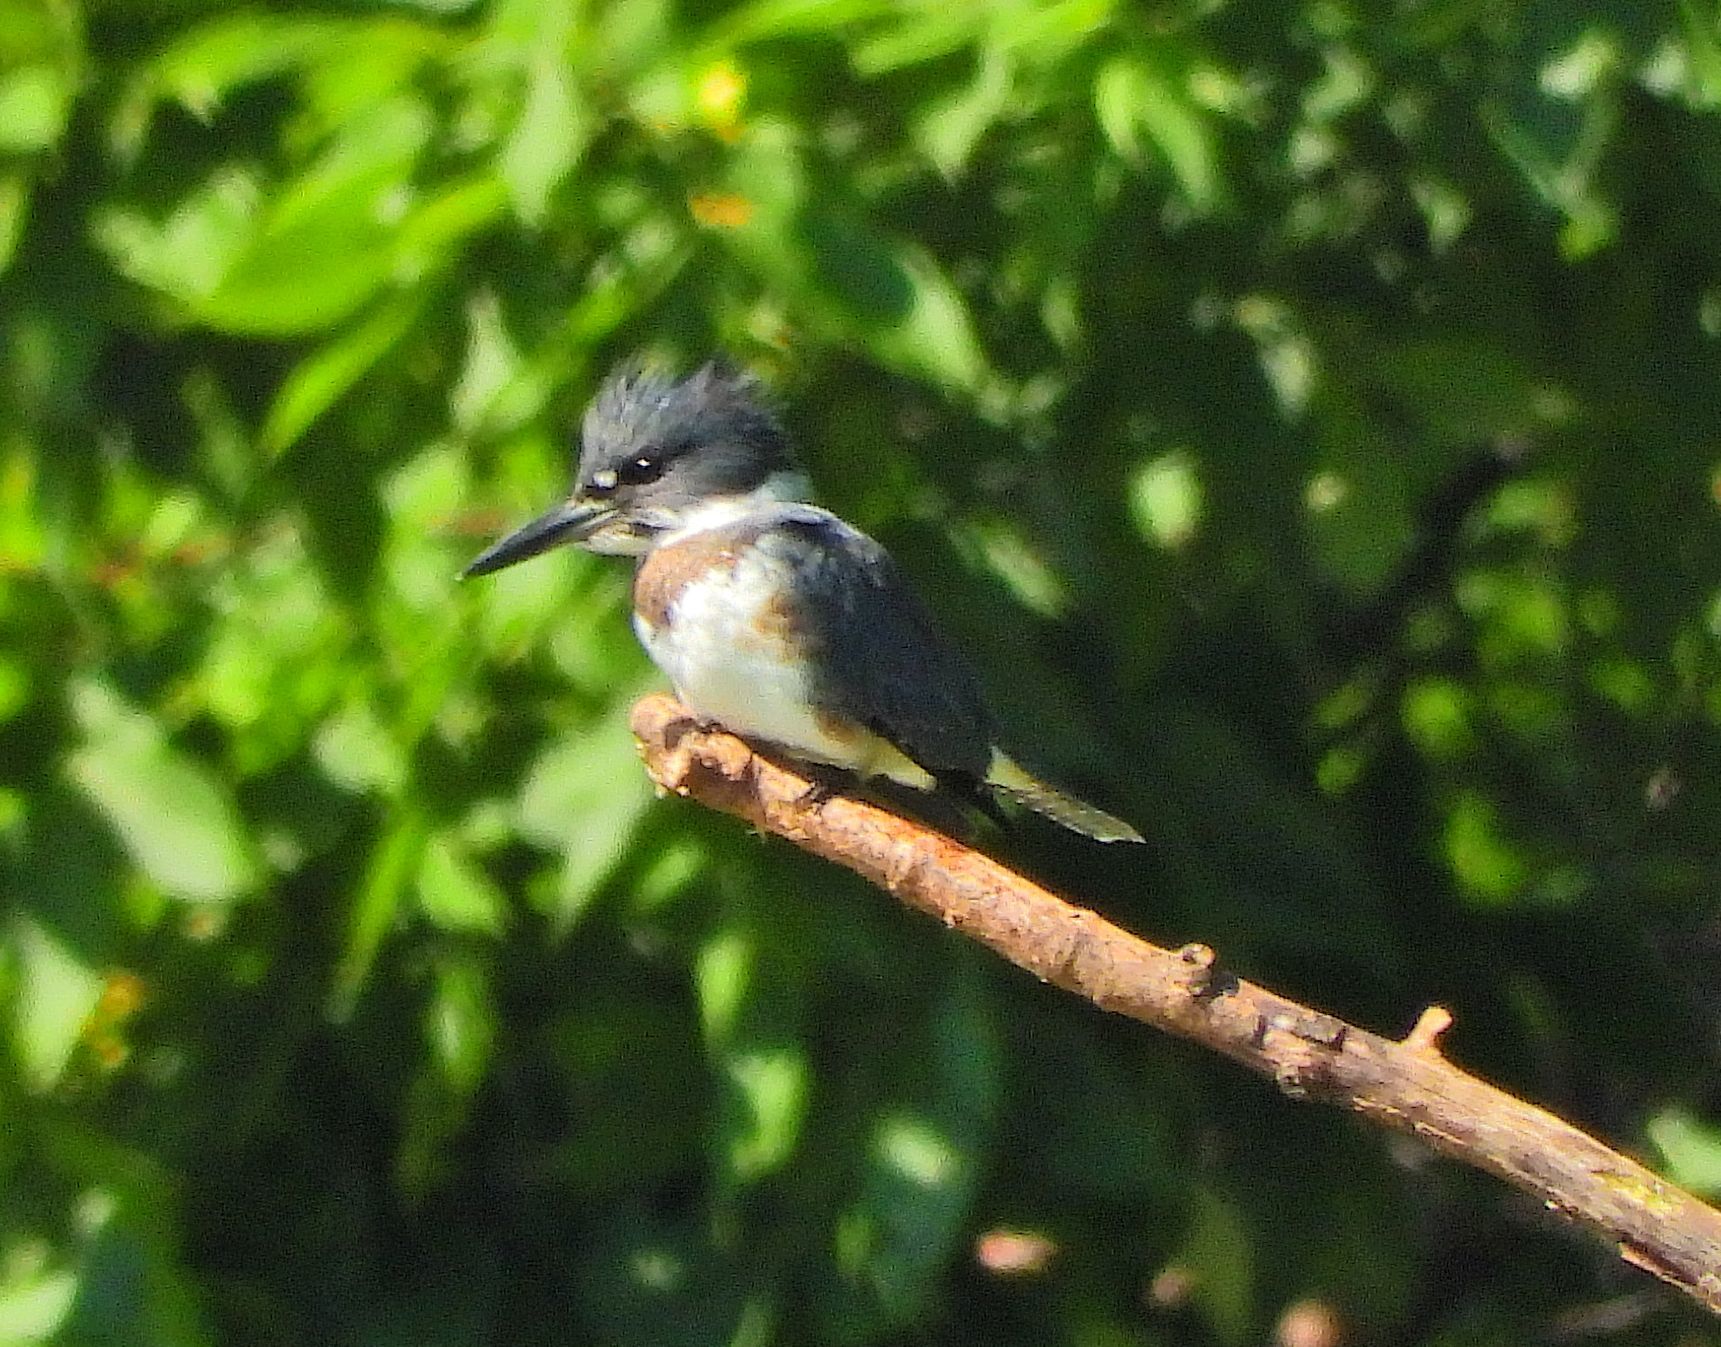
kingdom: Animalia
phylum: Chordata
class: Aves
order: Coraciiformes
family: Alcedinidae
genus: Megaceryle
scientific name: Megaceryle alcyon
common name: Belted kingfisher
